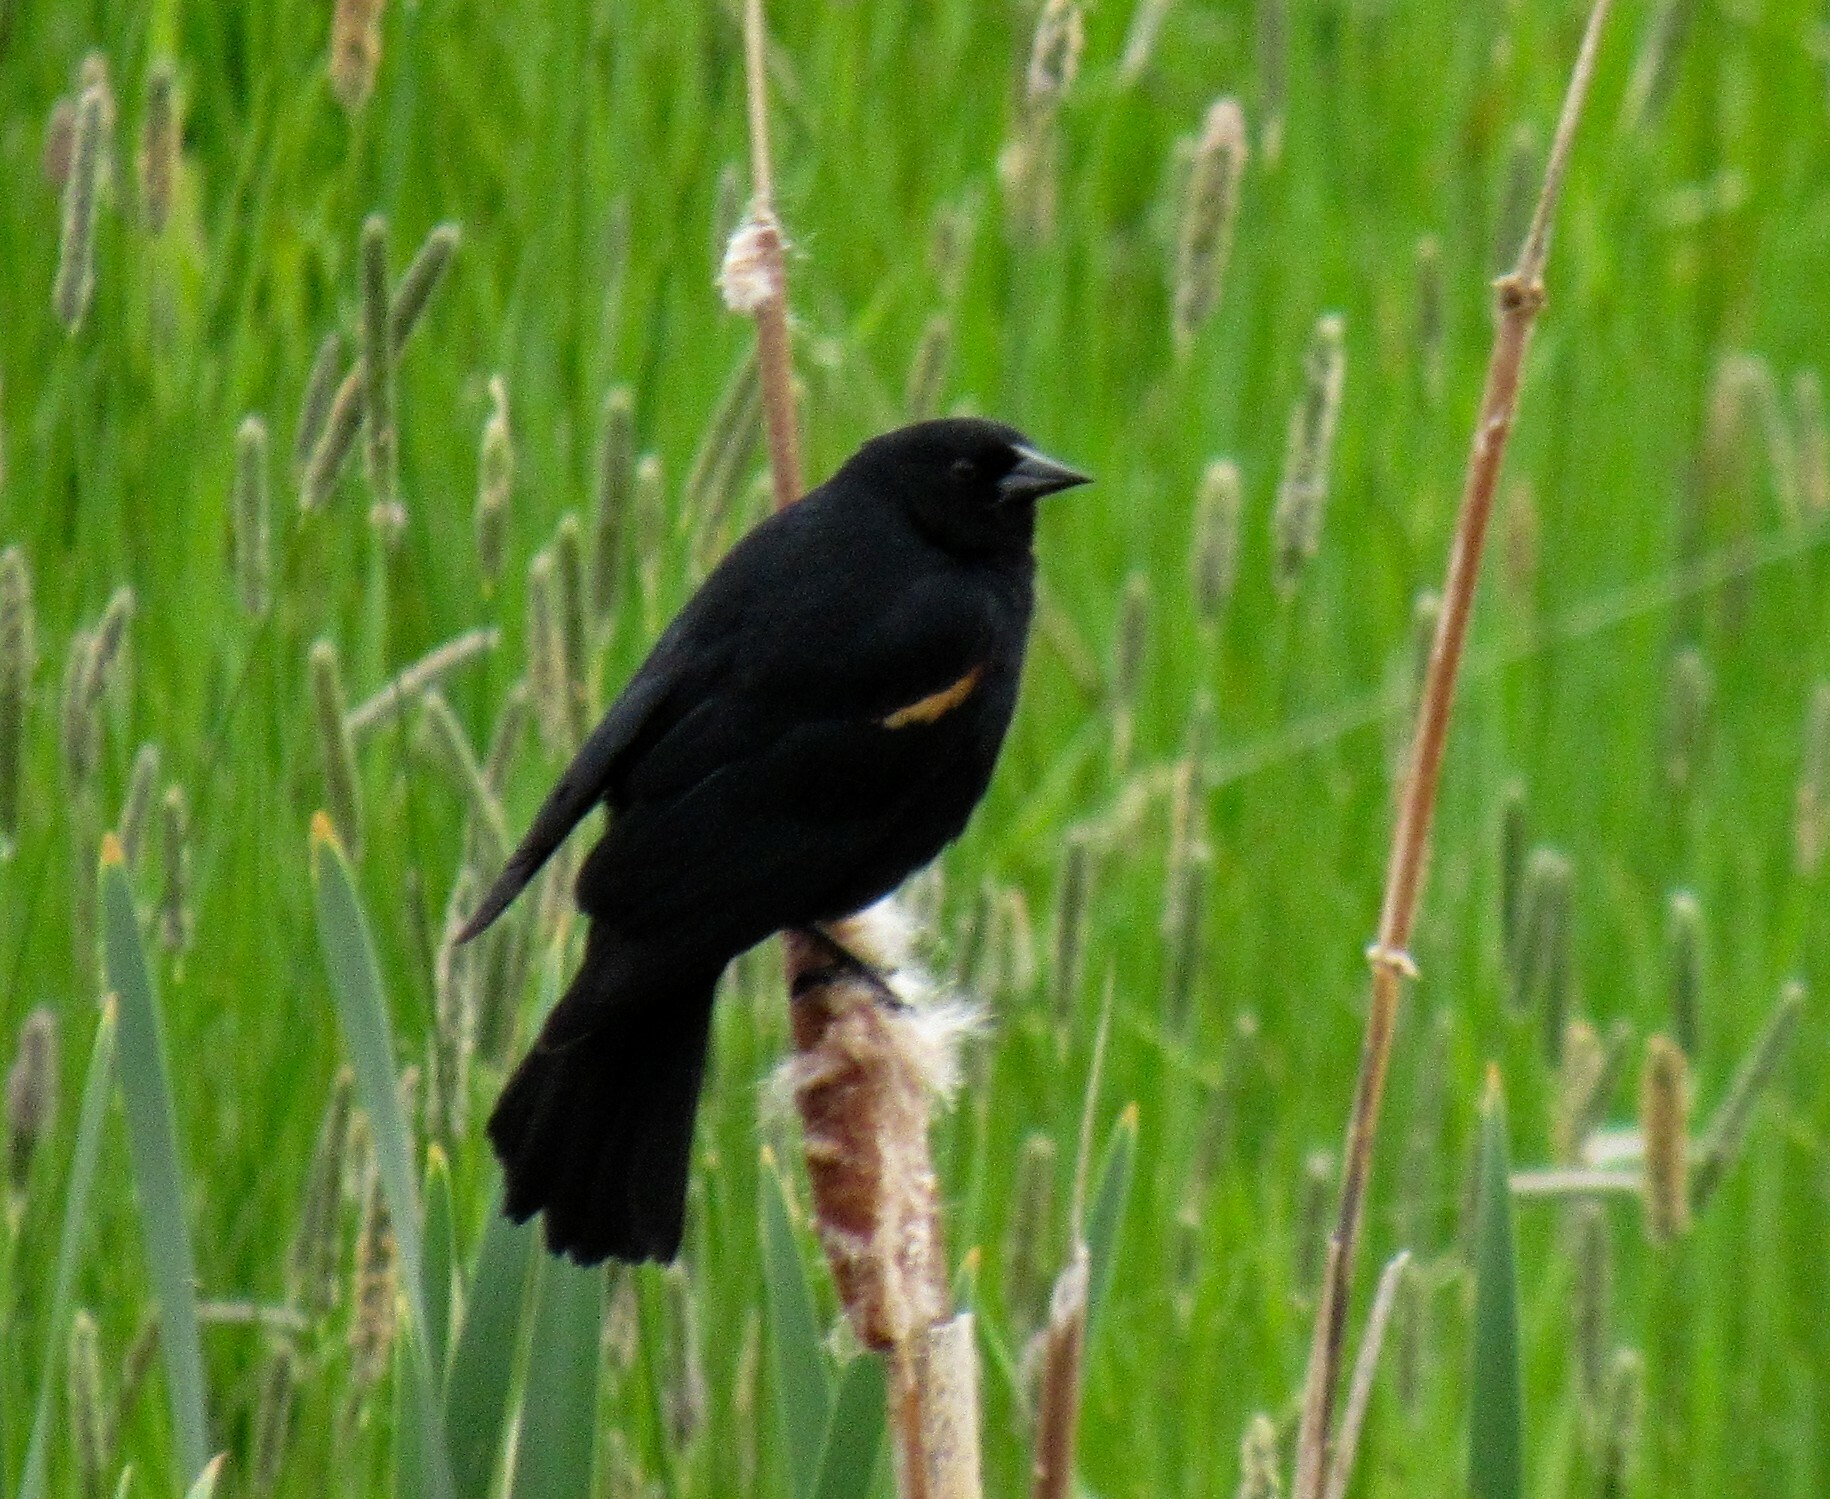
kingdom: Animalia
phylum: Chordata
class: Aves
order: Passeriformes
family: Icteridae
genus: Agelaius
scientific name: Agelaius phoeniceus
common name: Red-winged blackbird
